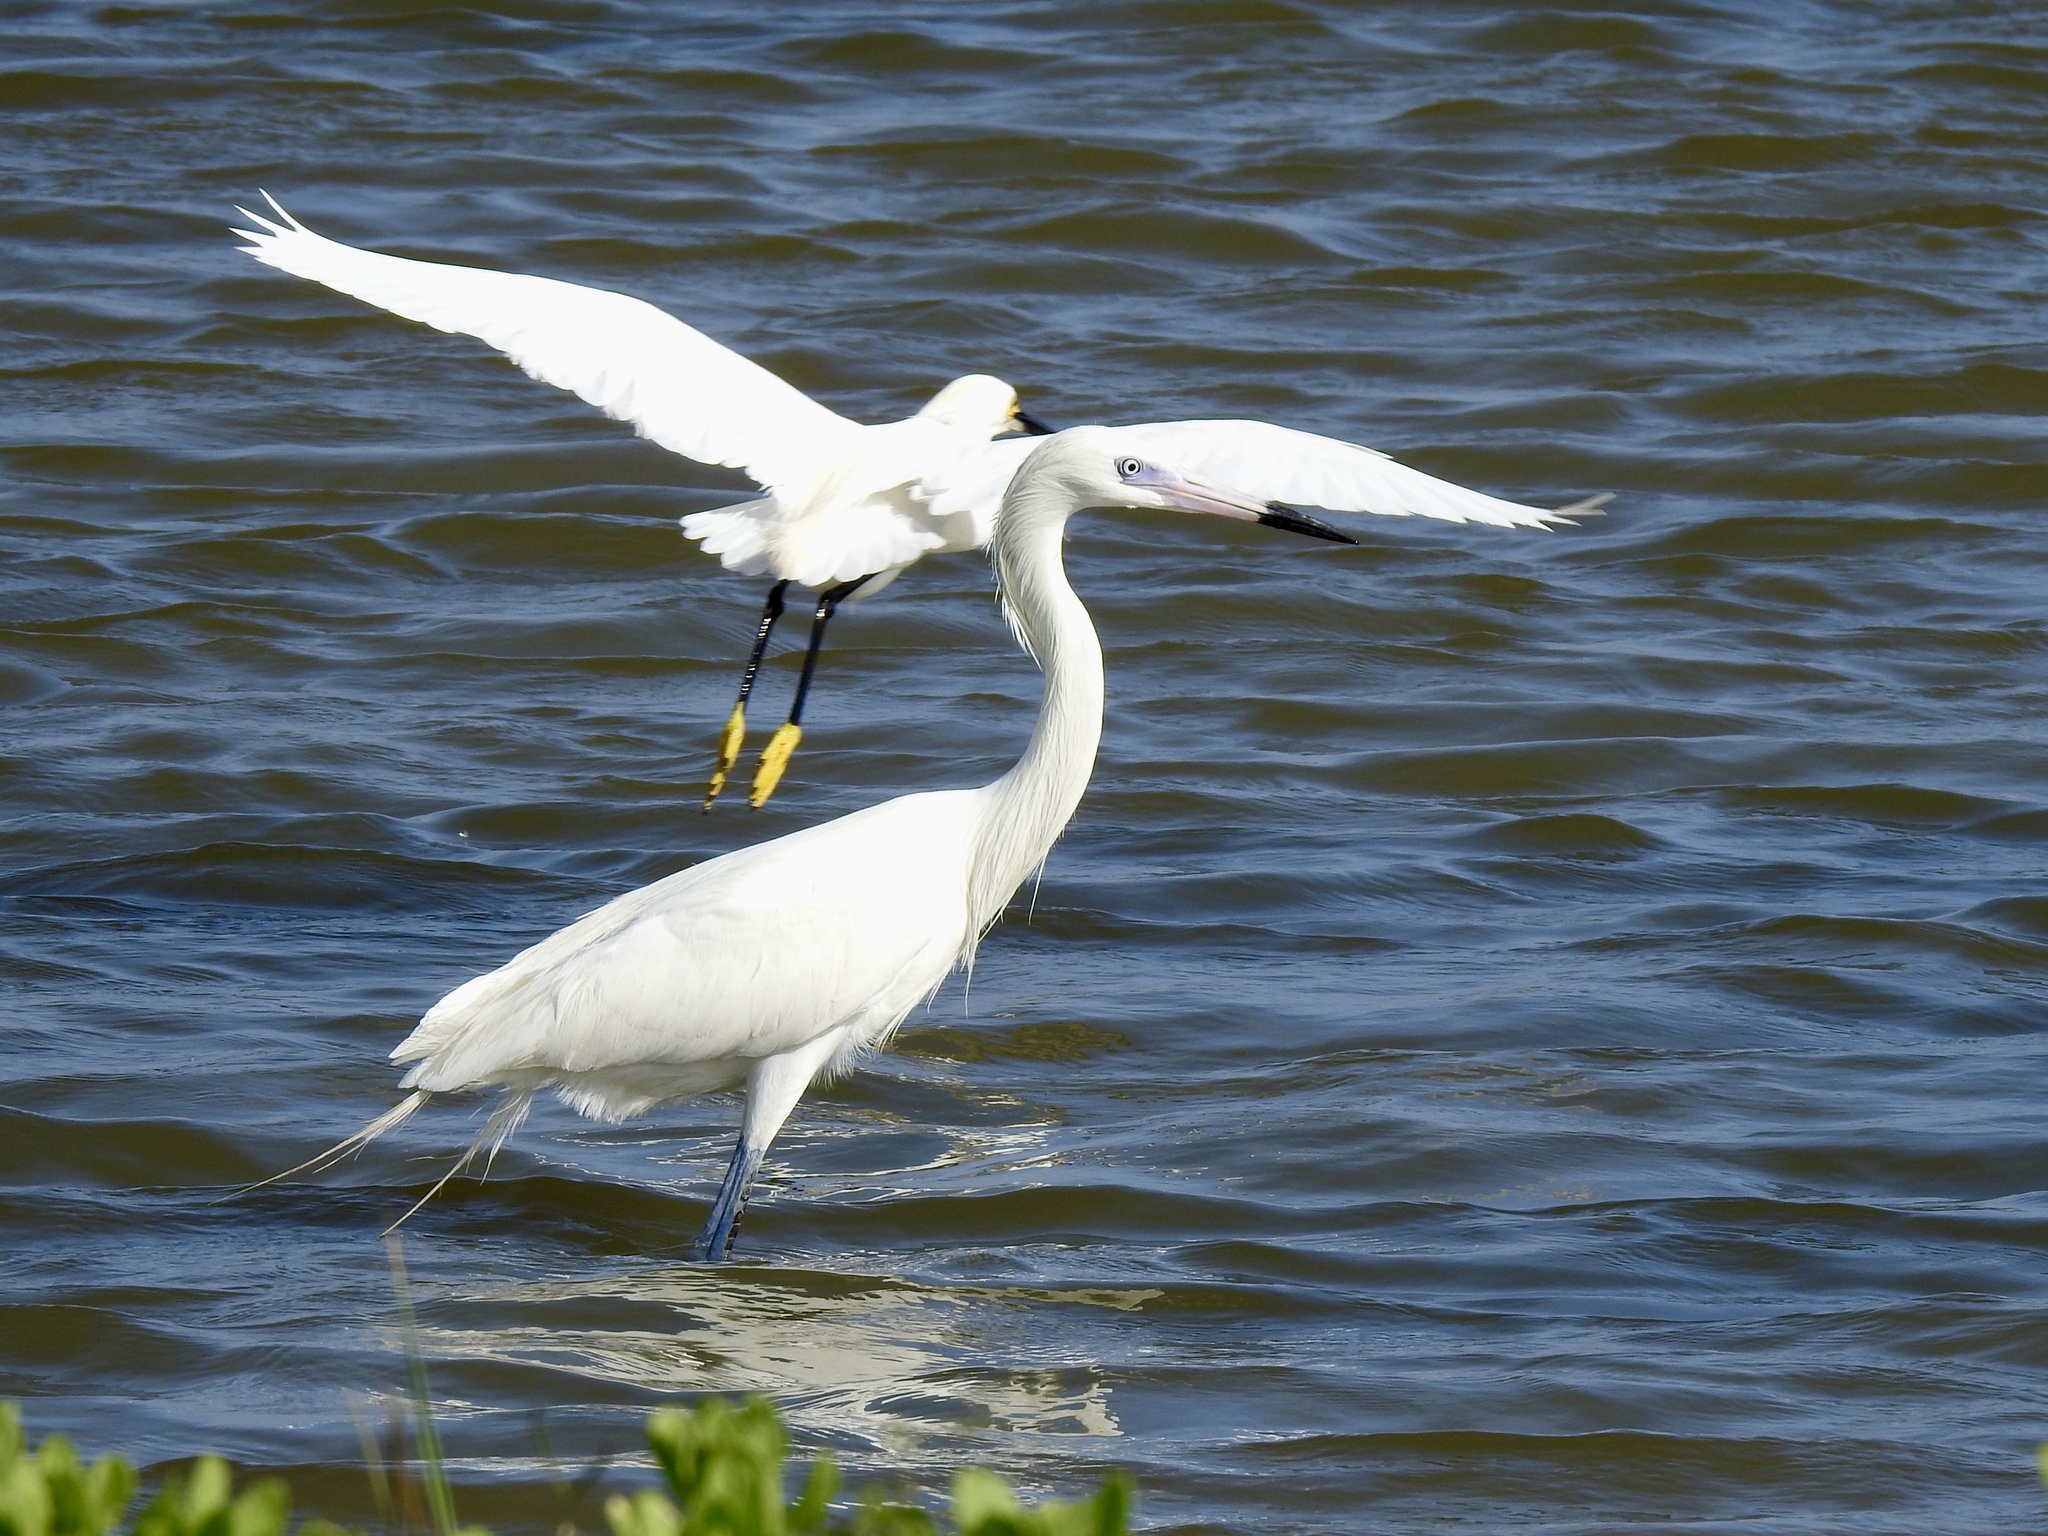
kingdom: Animalia
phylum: Chordata
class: Aves
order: Pelecaniformes
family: Ardeidae
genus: Egretta
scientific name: Egretta rufescens
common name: Reddish egret
